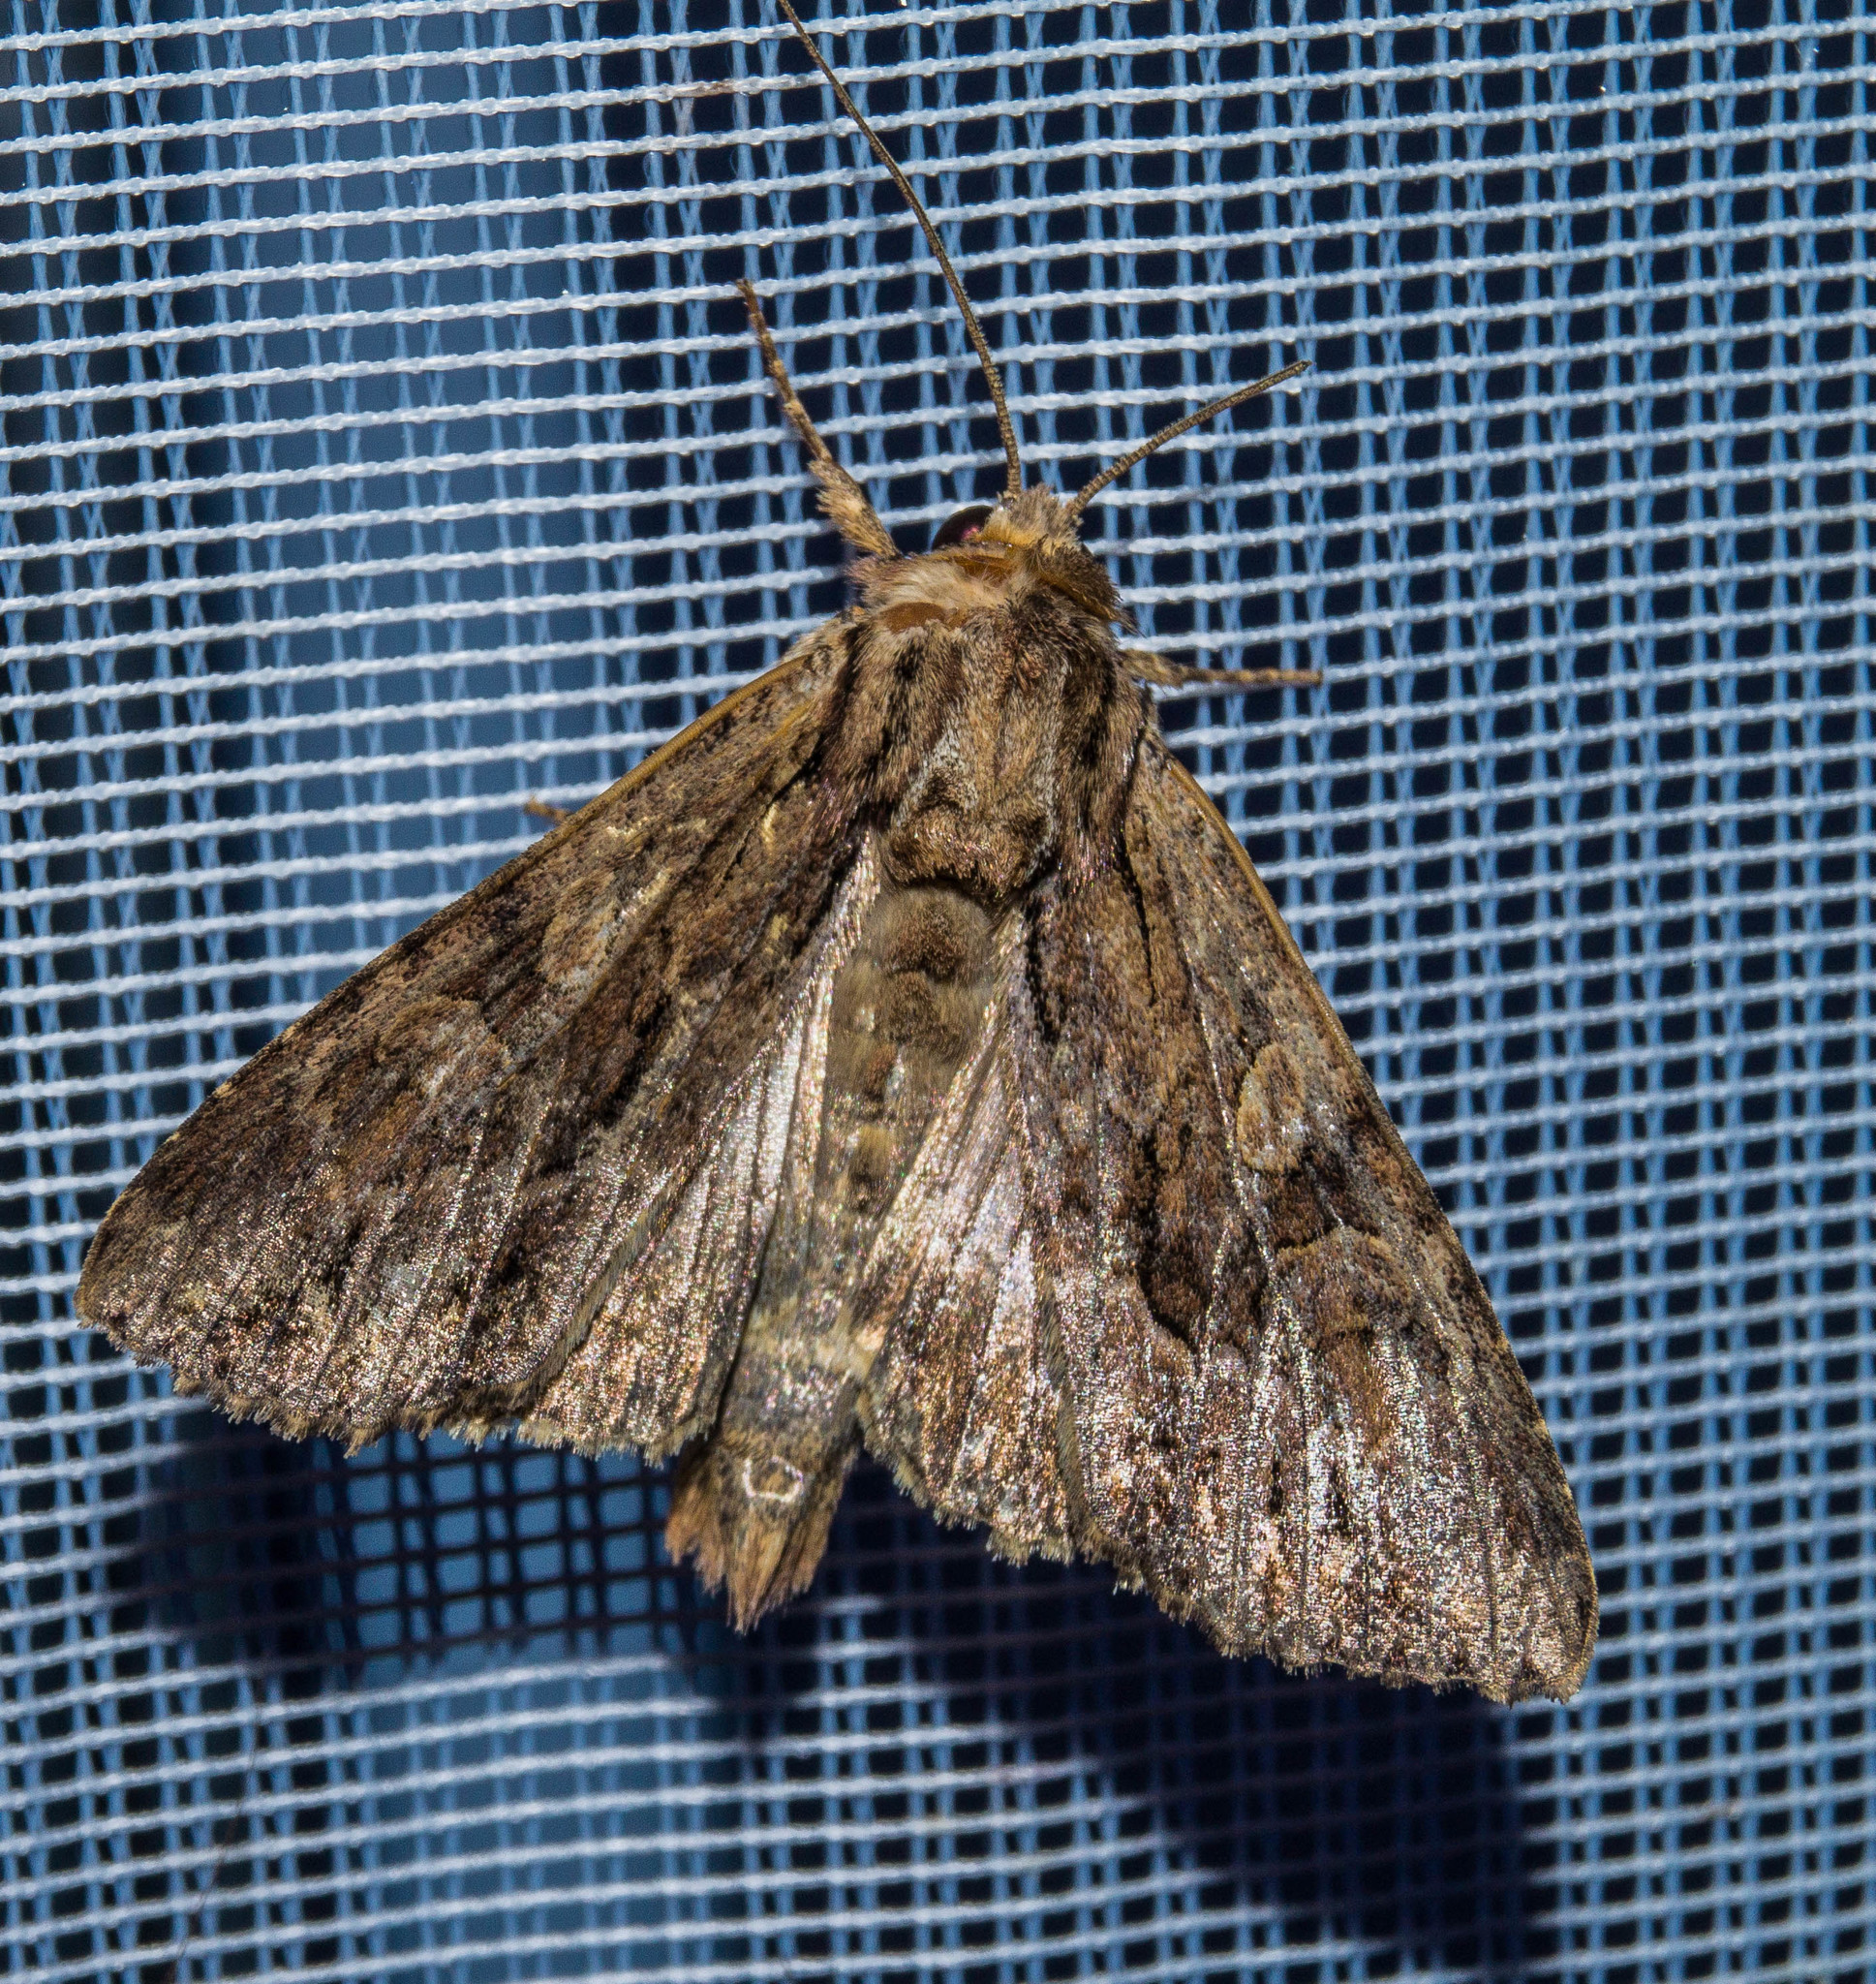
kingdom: Animalia
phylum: Arthropoda
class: Insecta
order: Lepidoptera
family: Noctuidae
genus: Apamea
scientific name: Apamea monoglypha
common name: Dark arches
